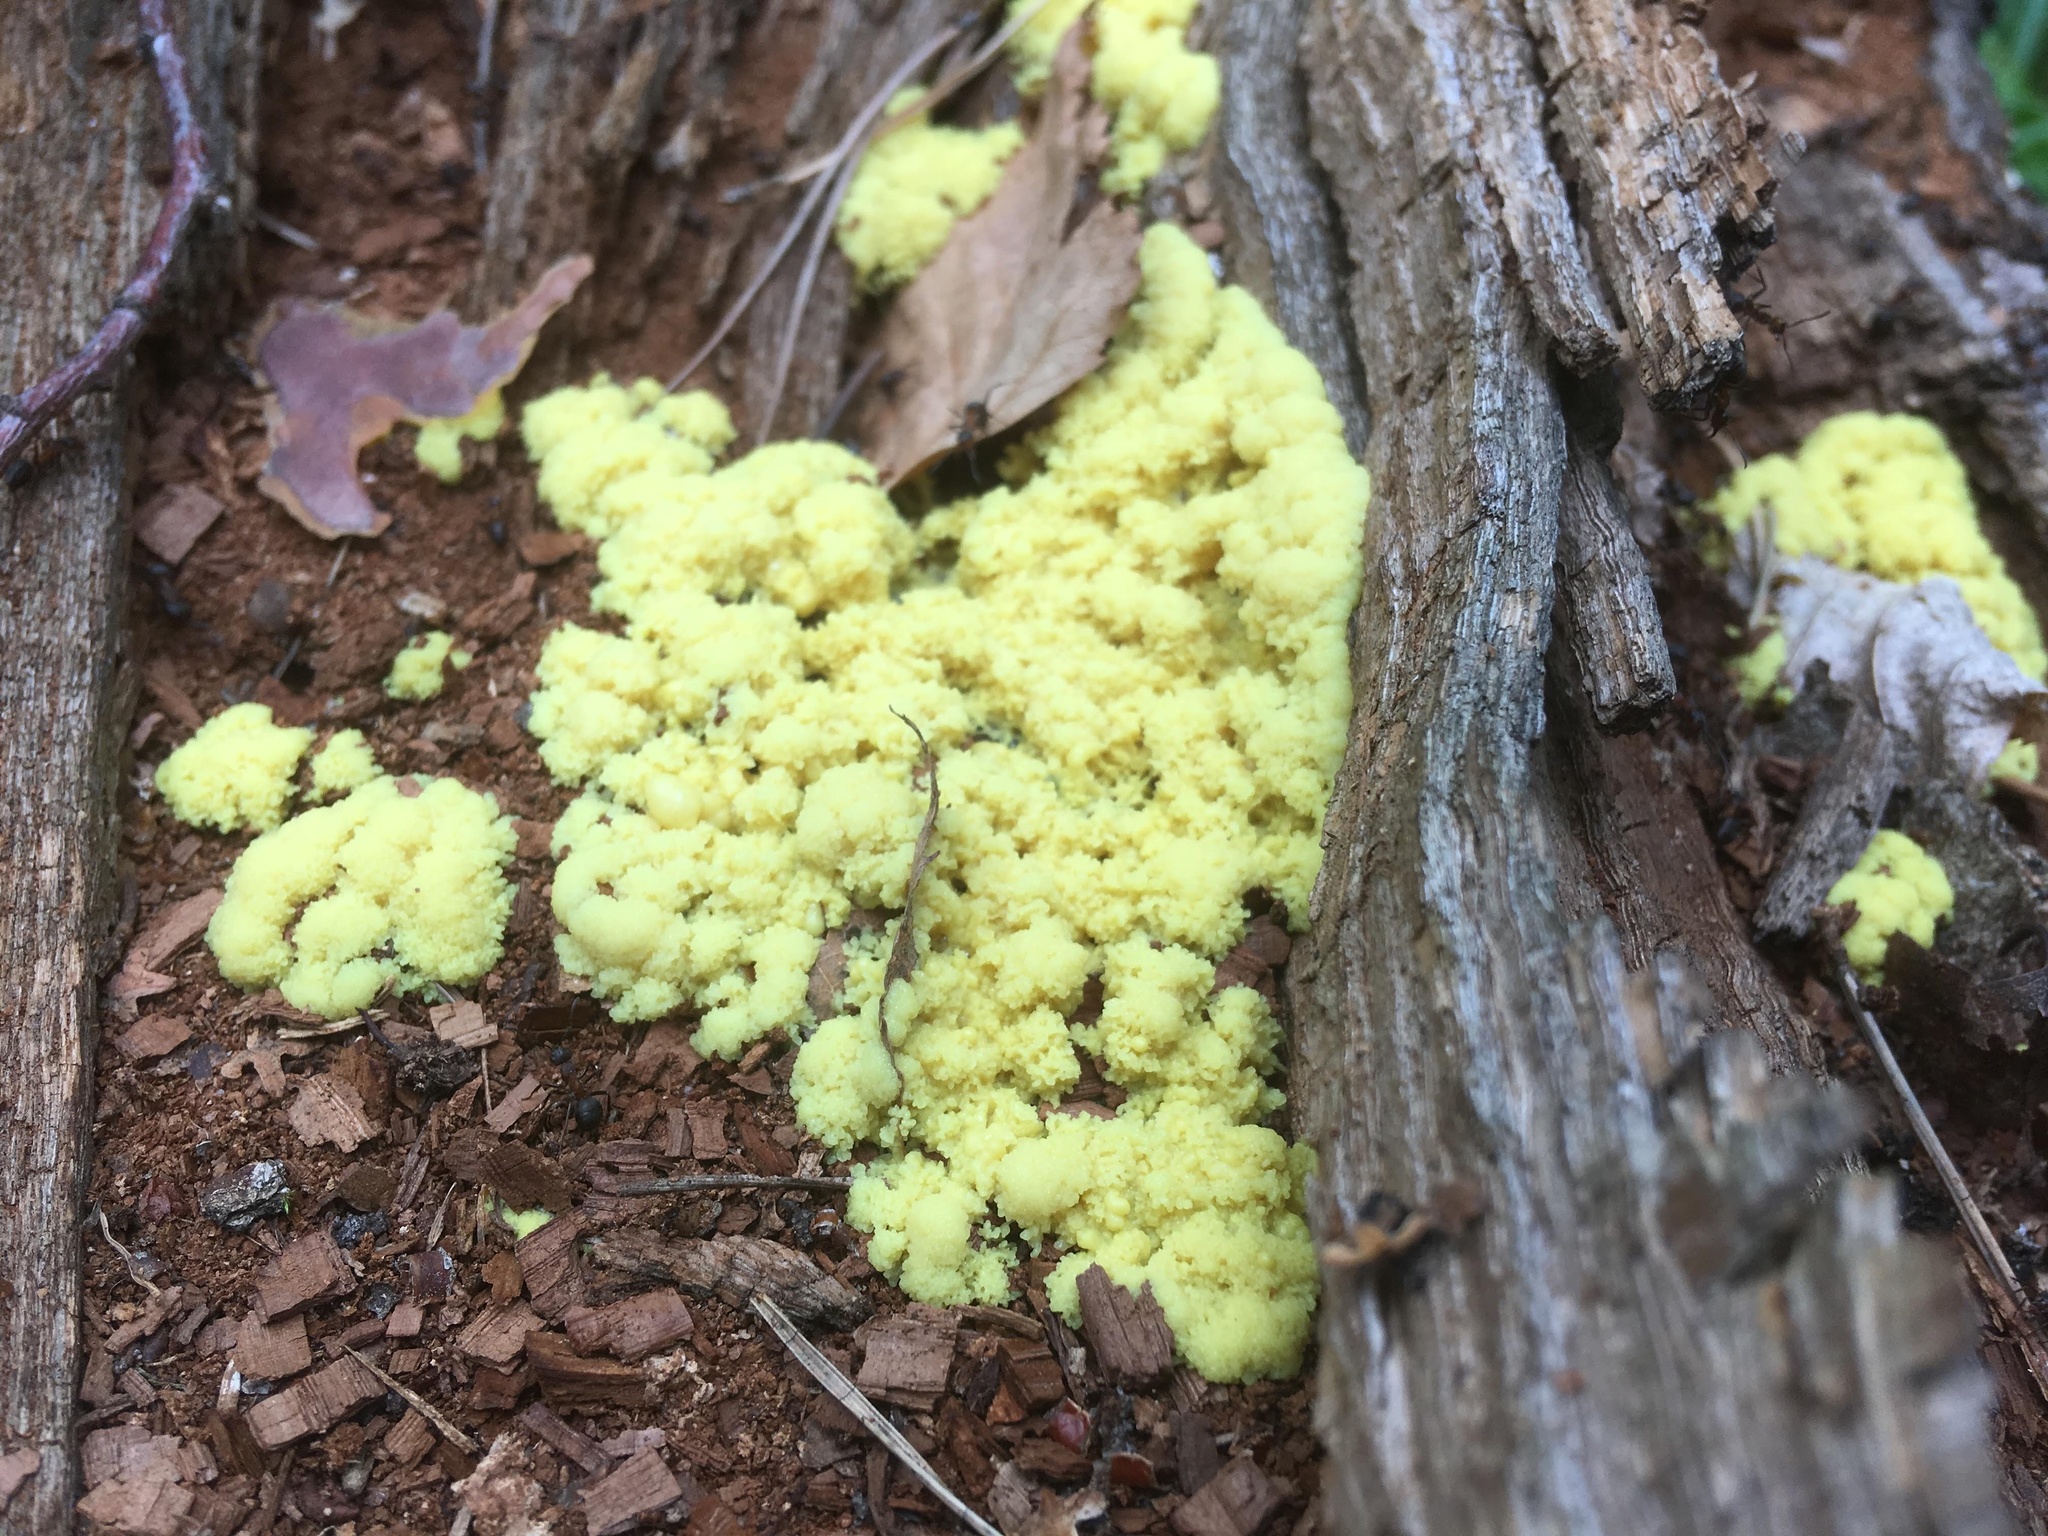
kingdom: Protozoa
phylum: Mycetozoa
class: Myxomycetes
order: Physarales
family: Physaraceae
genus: Fuligo
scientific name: Fuligo septica
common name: Dog vomit slime mold
